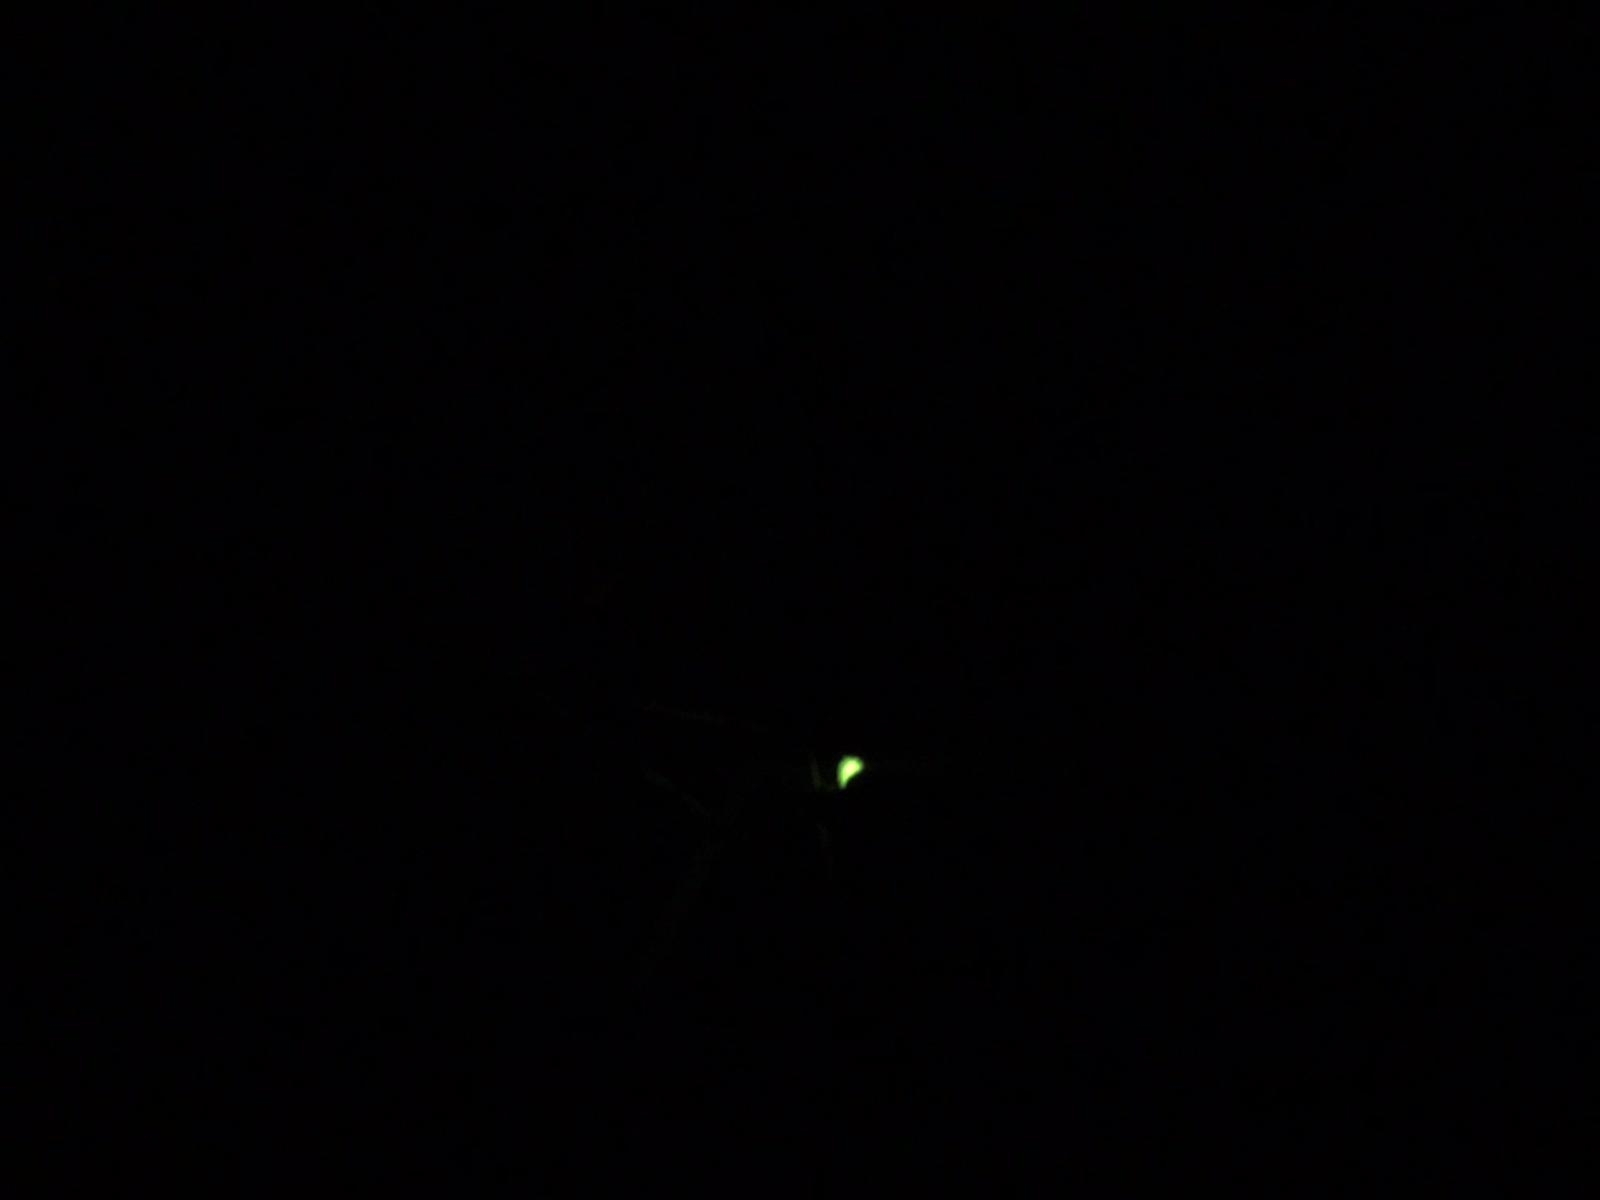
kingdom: Animalia
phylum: Arthropoda
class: Insecta
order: Coleoptera
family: Lampyridae
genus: Lampyris
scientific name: Lampyris noctiluca
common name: Glow-worm
